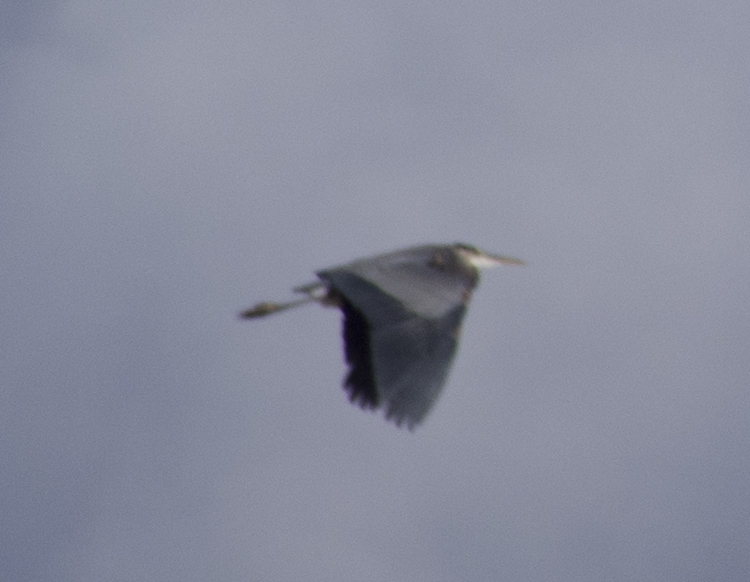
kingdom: Animalia
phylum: Chordata
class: Aves
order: Pelecaniformes
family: Ardeidae
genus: Ardea
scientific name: Ardea herodias
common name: Great blue heron
